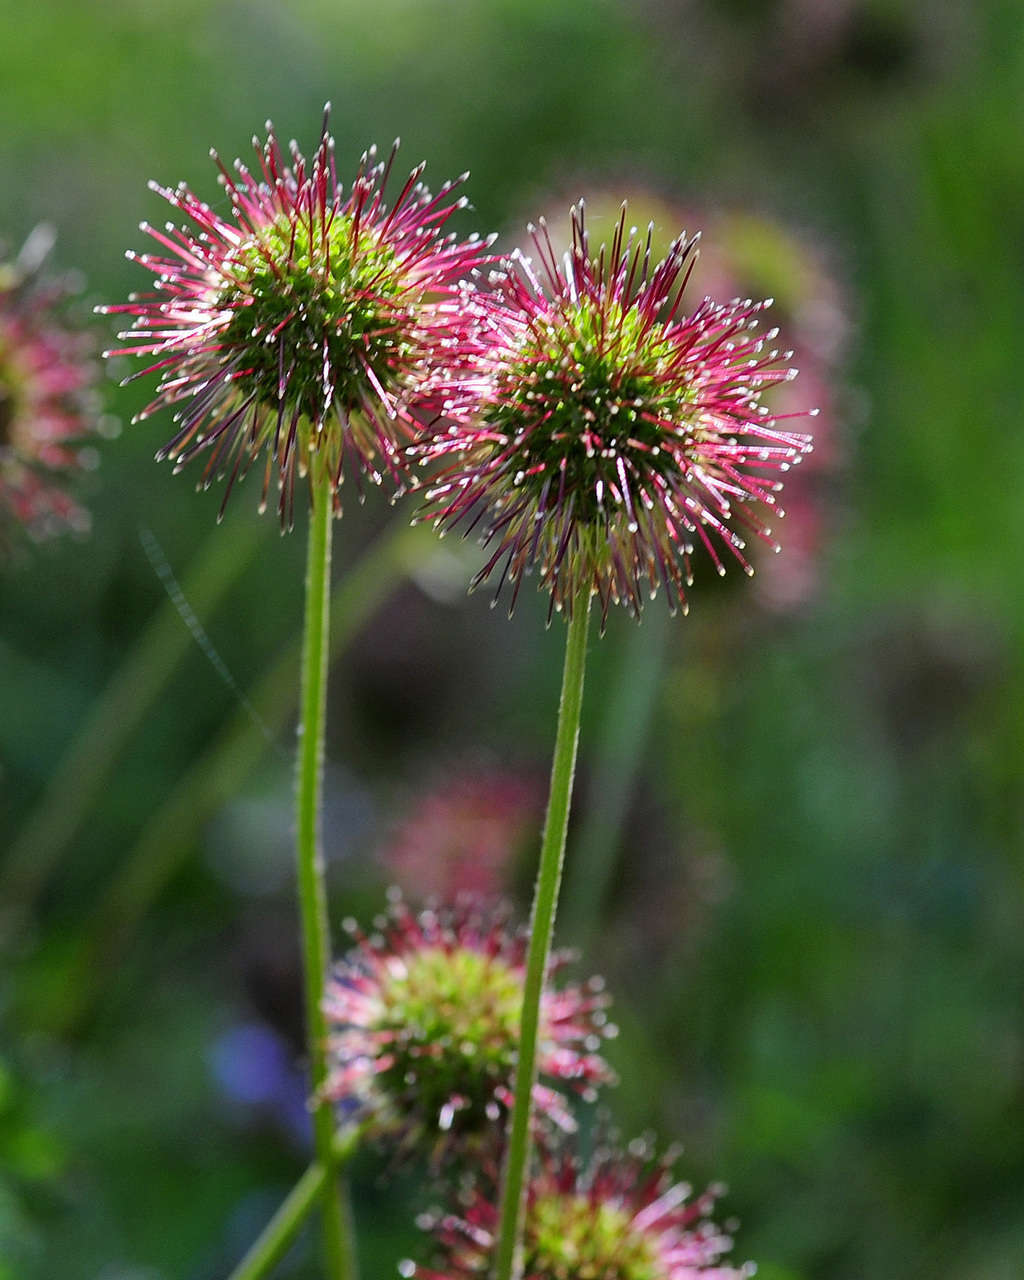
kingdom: Plantae
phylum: Tracheophyta
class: Magnoliopsida
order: Rosales
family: Rosaceae
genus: Acaena
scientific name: Acaena novae-zelandiae
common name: Pirri-pirri-bur
